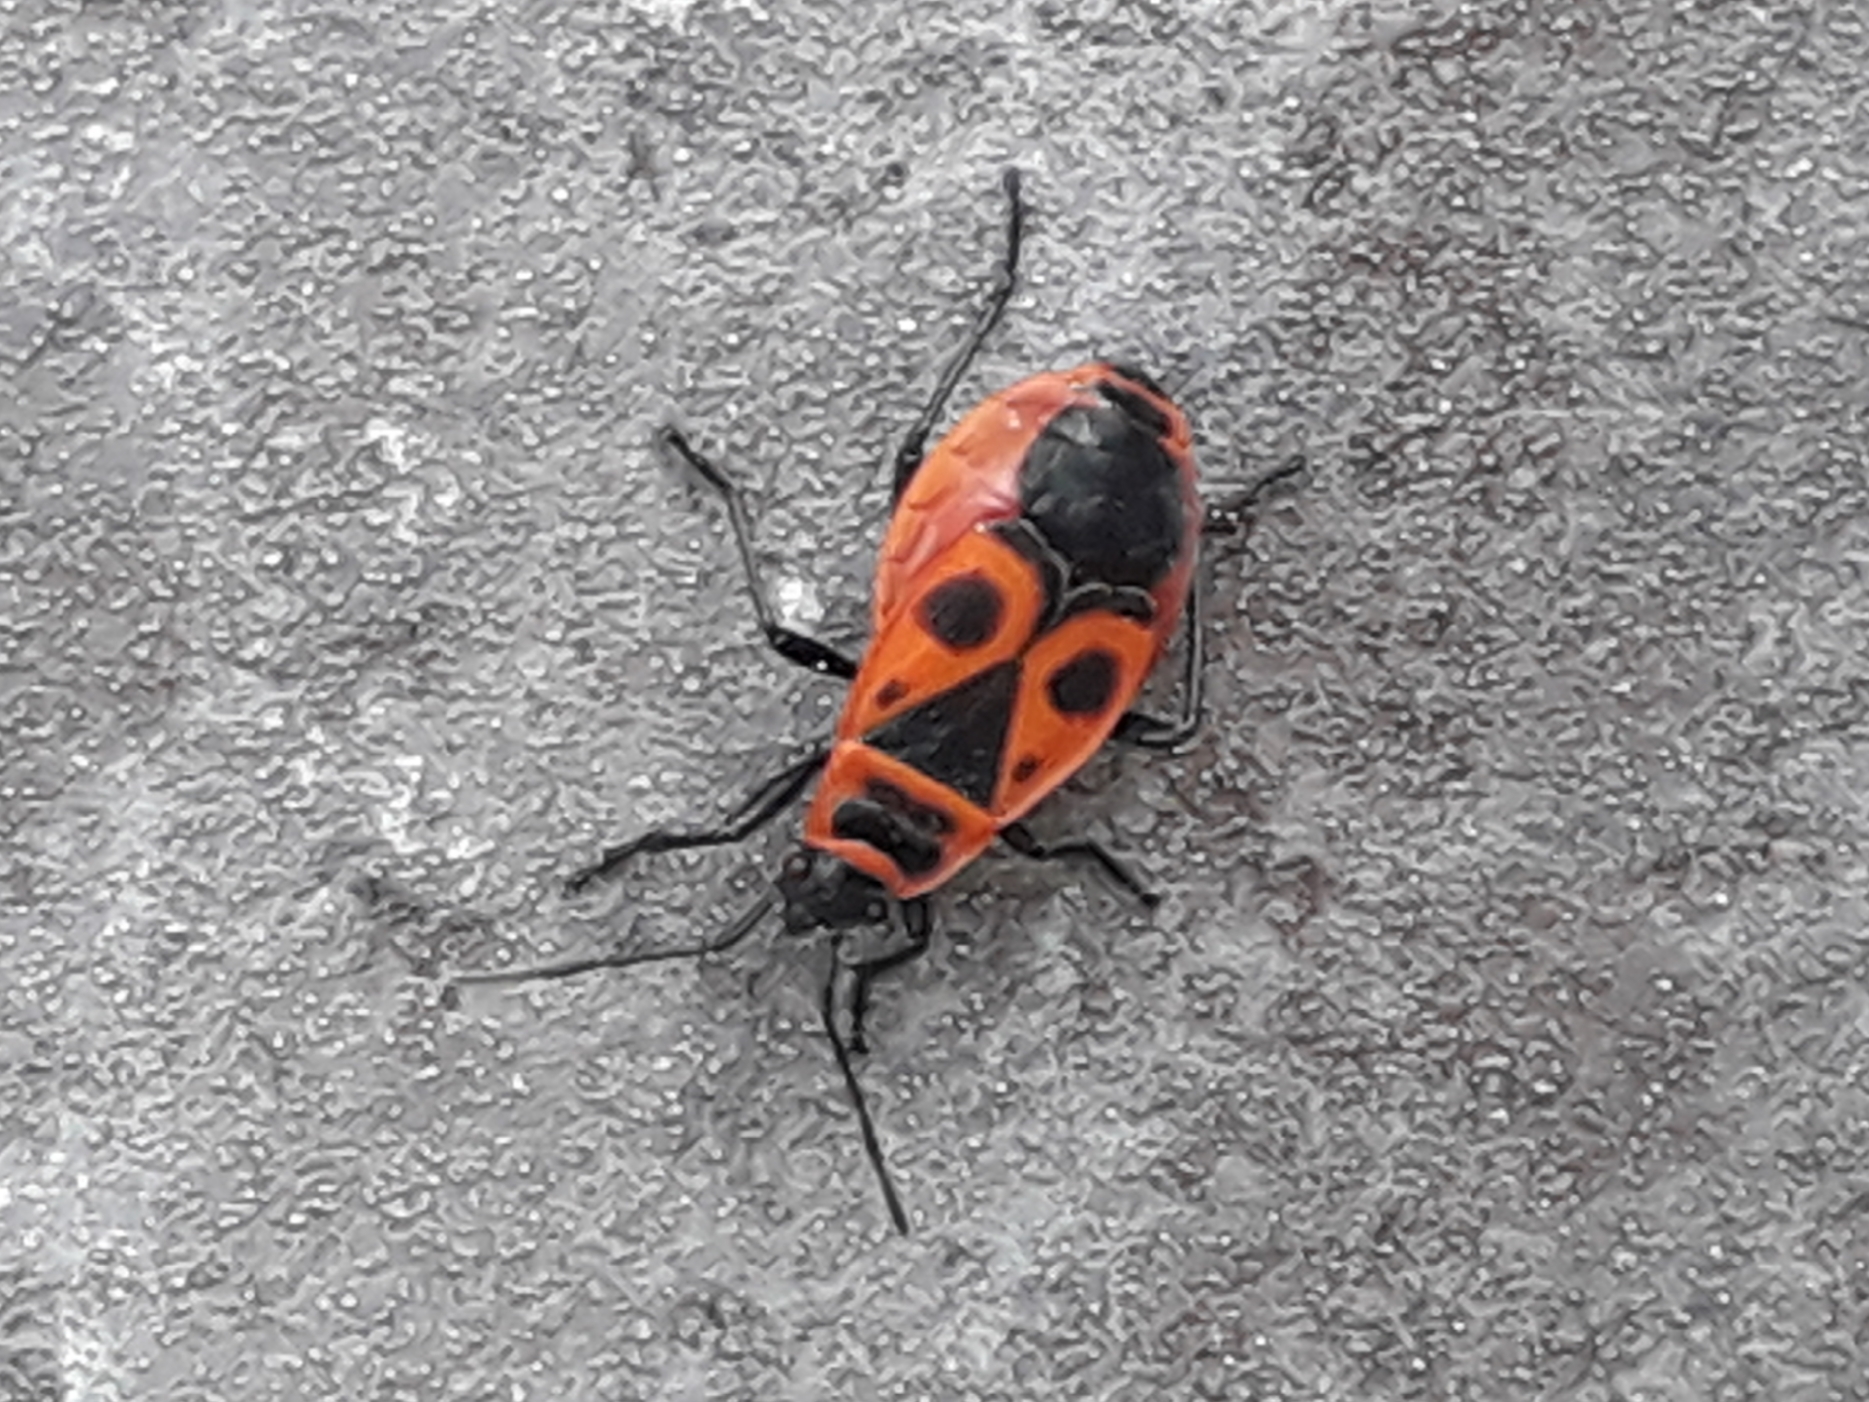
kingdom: Animalia
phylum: Arthropoda
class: Insecta
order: Hemiptera
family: Pyrrhocoridae
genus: Pyrrhocoris
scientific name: Pyrrhocoris apterus
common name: Firebug
